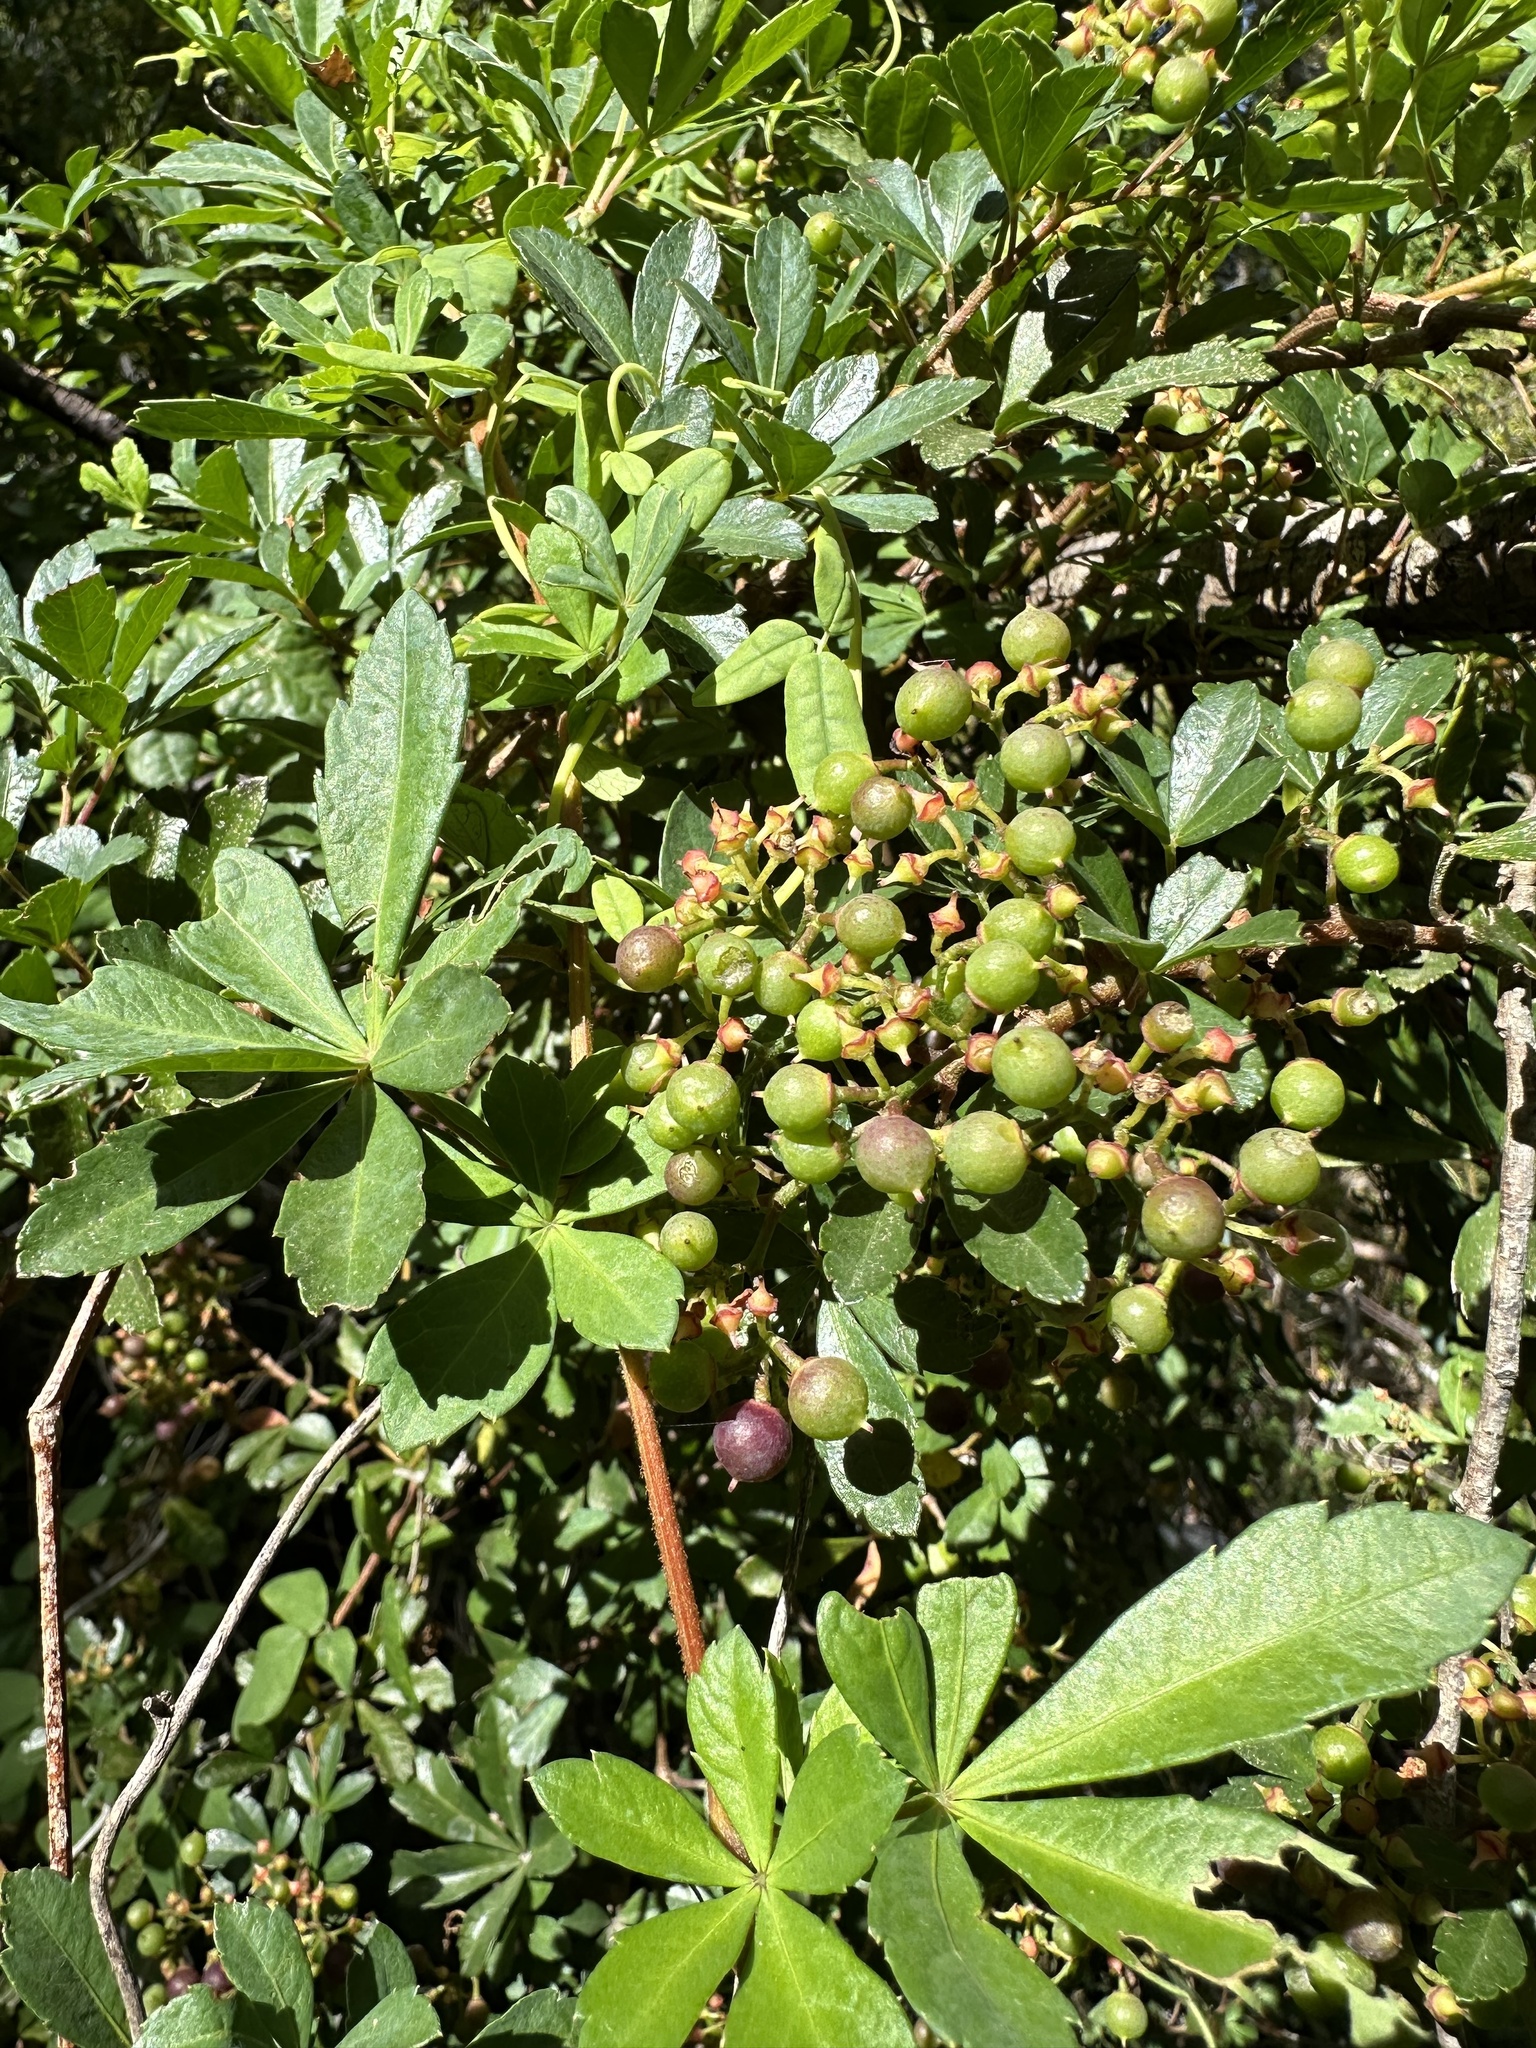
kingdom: Plantae
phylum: Tracheophyta
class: Magnoliopsida
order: Vitales
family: Vitaceae
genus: Clematicissus
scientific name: Clematicissus striata
